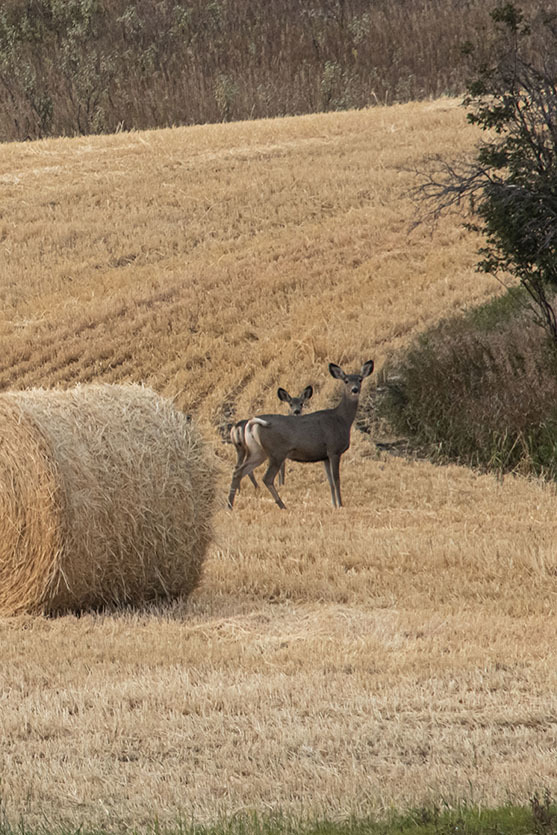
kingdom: Animalia
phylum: Chordata
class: Mammalia
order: Artiodactyla
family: Cervidae
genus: Odocoileus
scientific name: Odocoileus hemionus
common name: Mule deer
